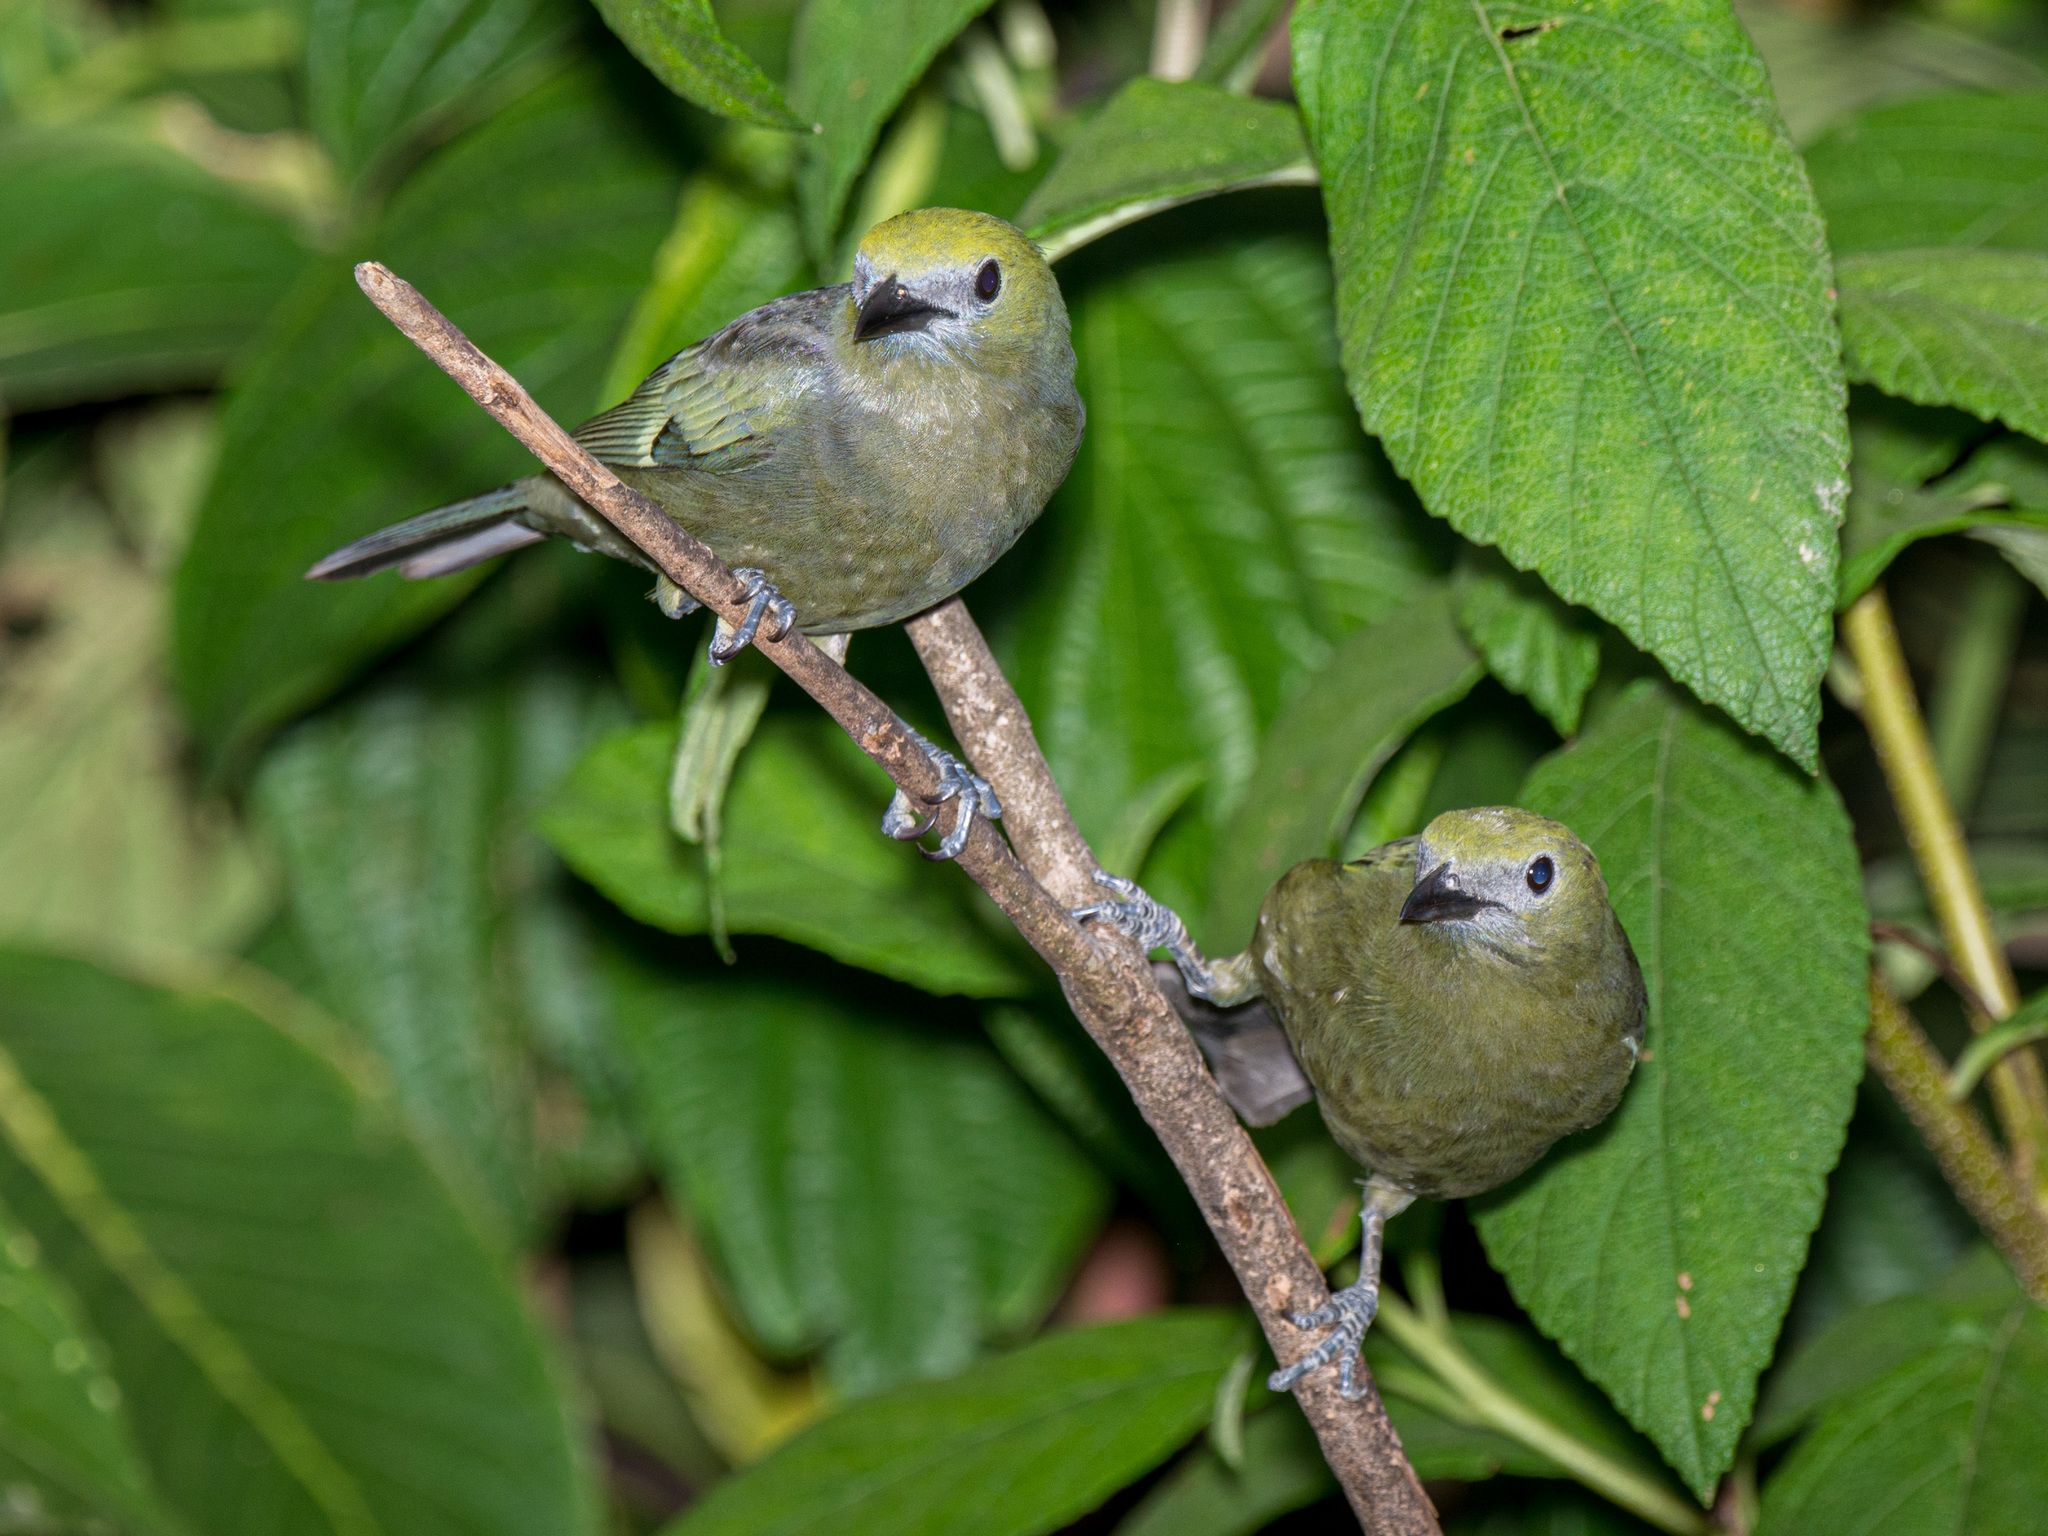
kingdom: Animalia
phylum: Chordata
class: Aves
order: Passeriformes
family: Thraupidae
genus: Thraupis
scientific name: Thraupis palmarum
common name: Palm tanager
